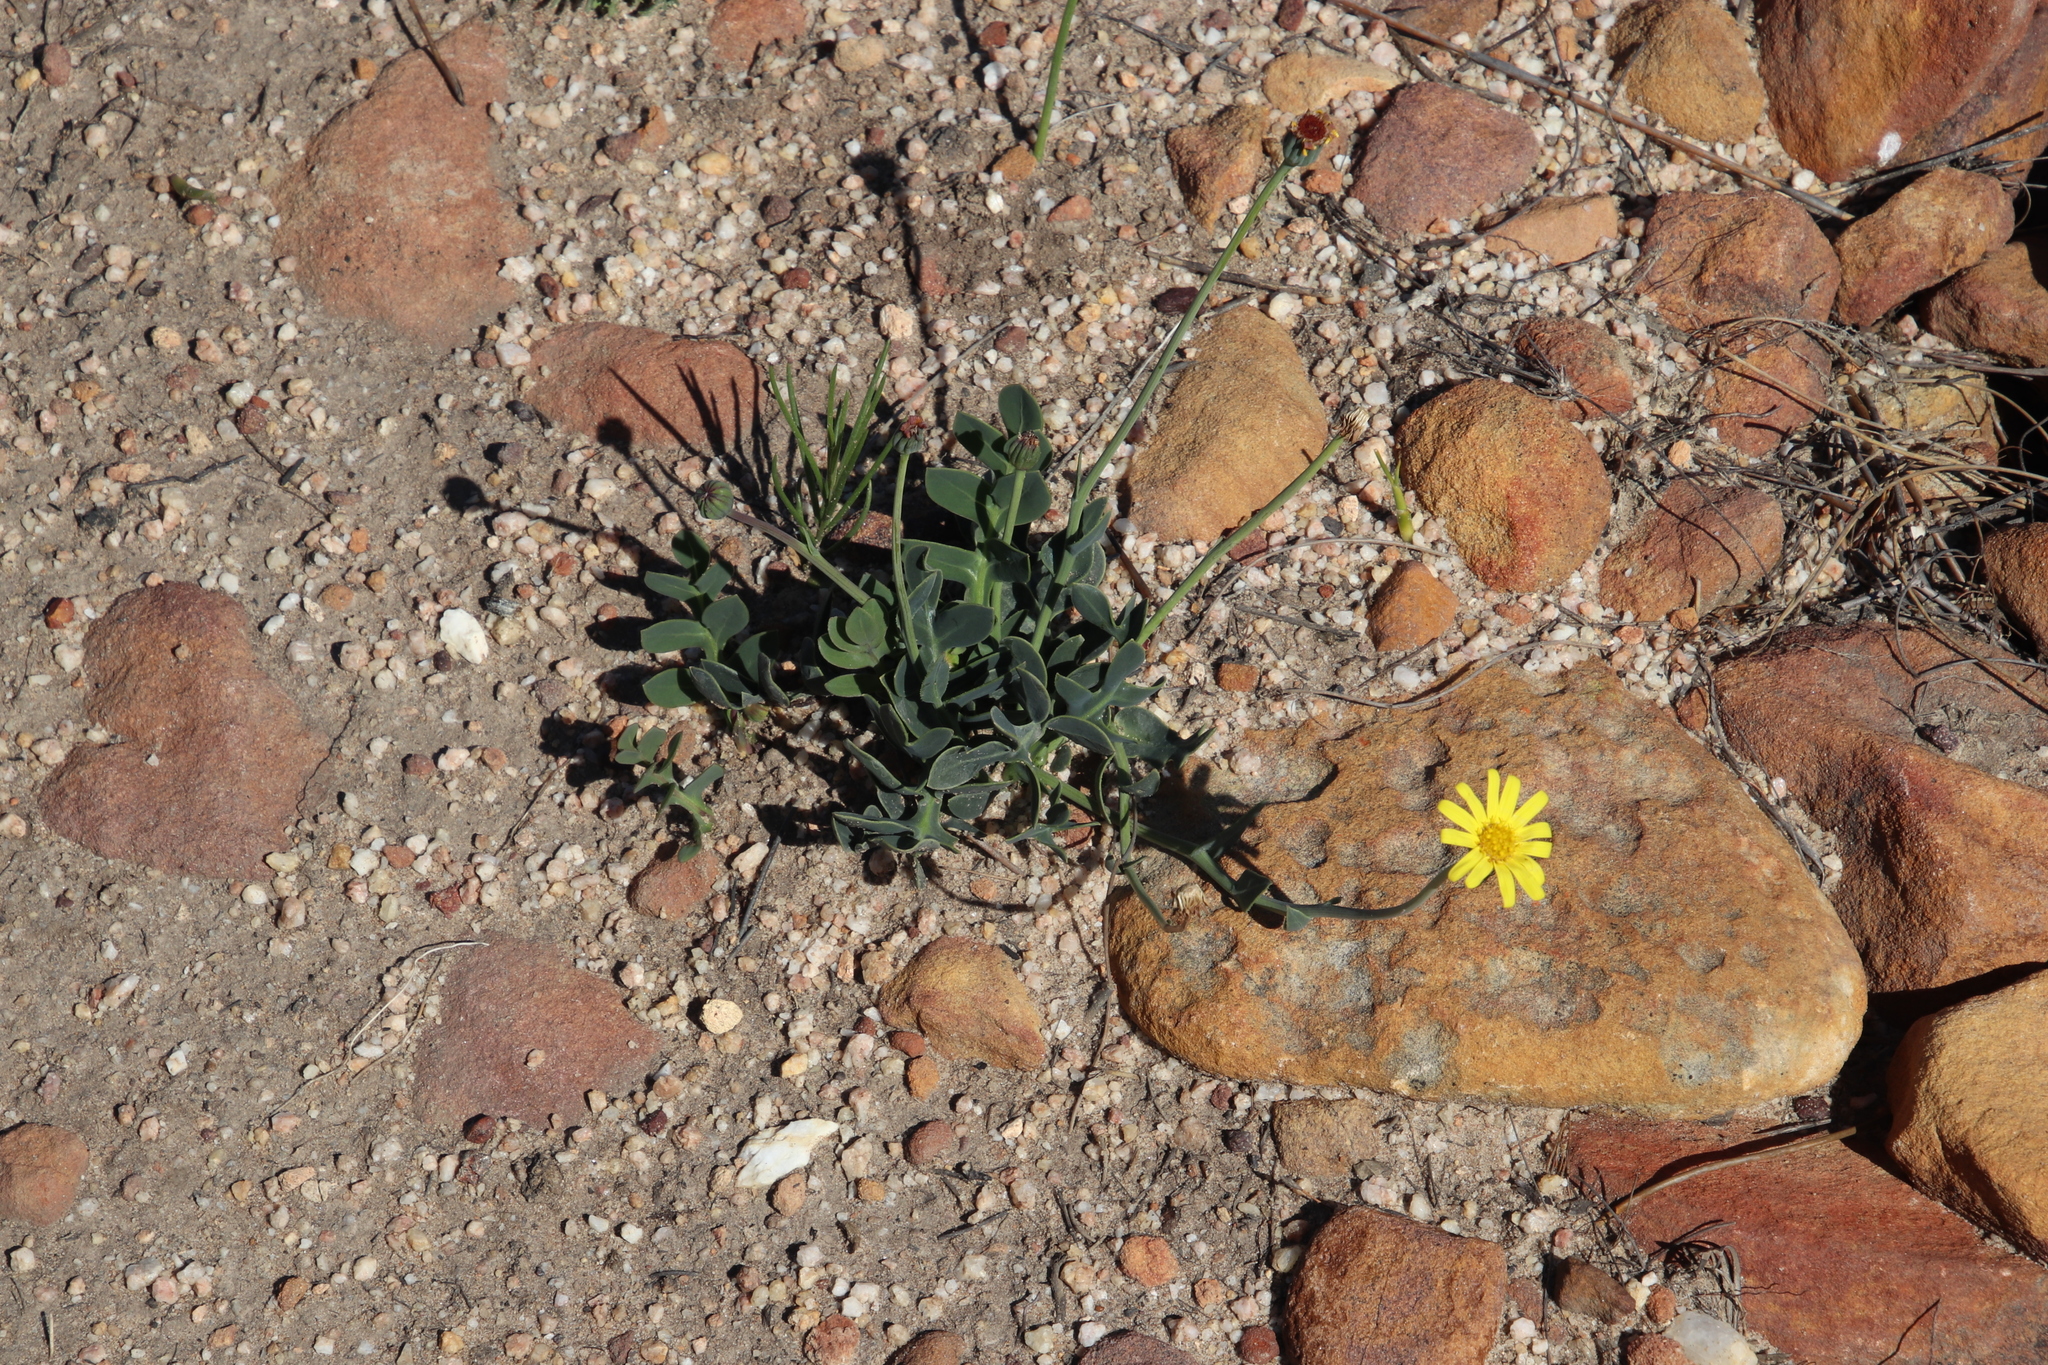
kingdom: Plantae
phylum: Tracheophyta
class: Magnoliopsida
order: Asterales
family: Asteraceae
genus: Othonna
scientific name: Othonna pinnata
